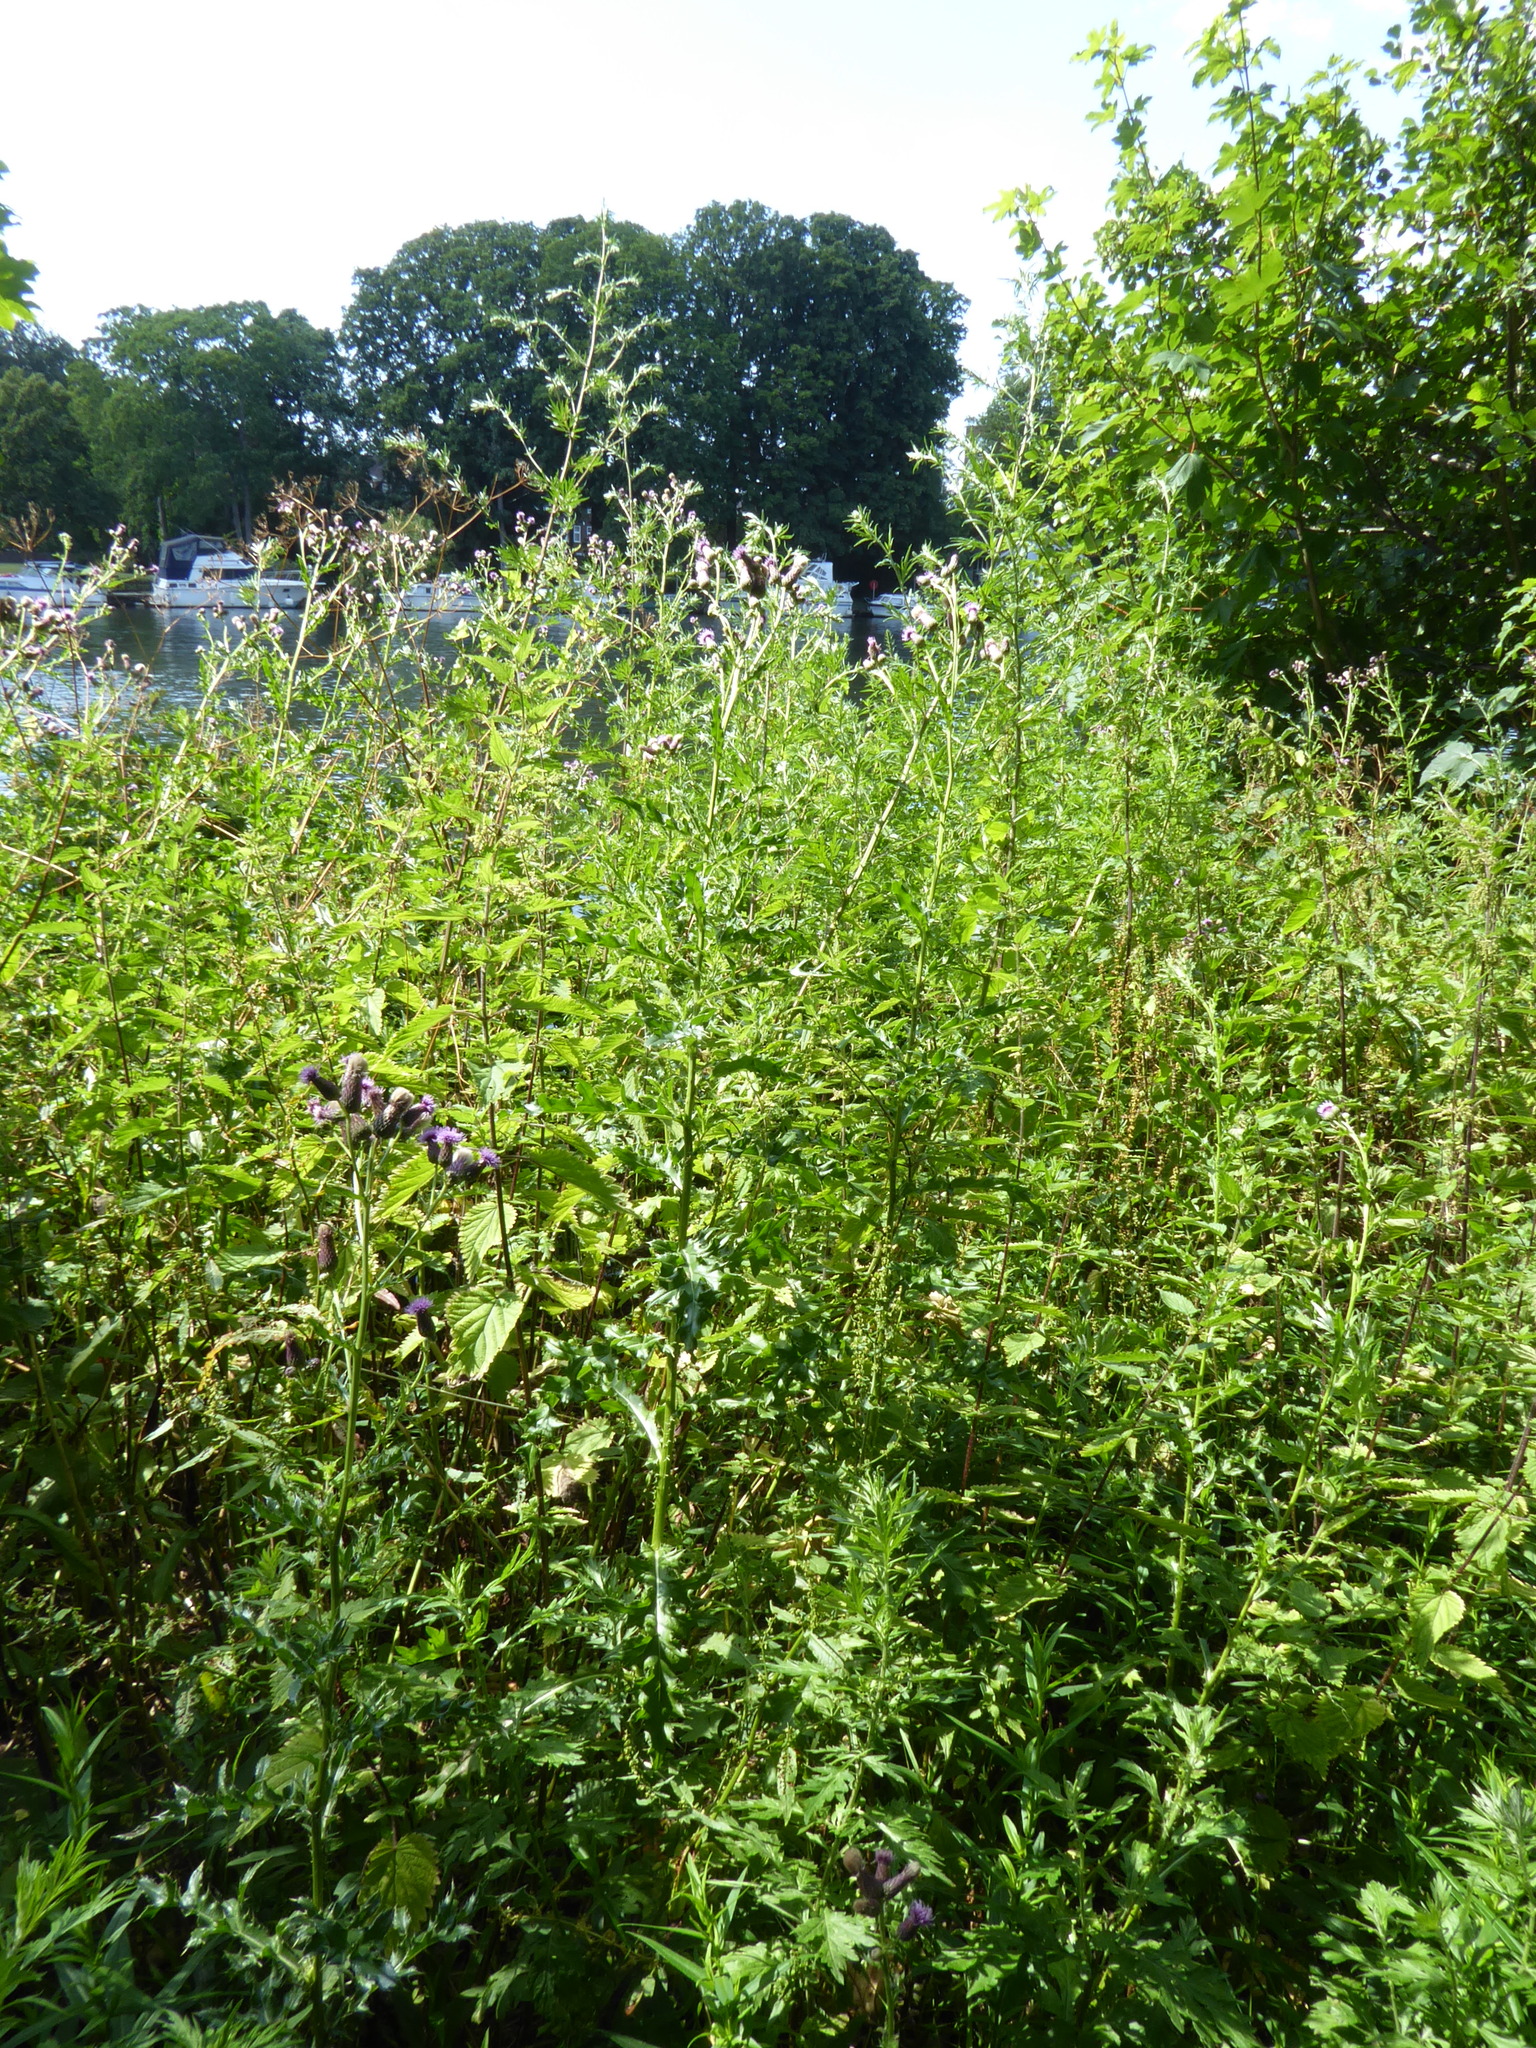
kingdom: Plantae
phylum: Tracheophyta
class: Magnoliopsida
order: Asterales
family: Asteraceae
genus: Cirsium
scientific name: Cirsium arvense
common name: Creeping thistle
